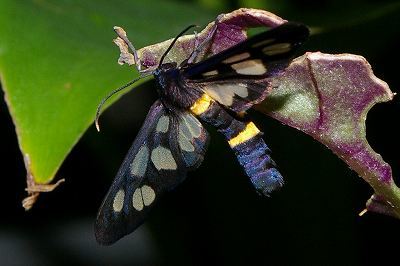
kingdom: Animalia
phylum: Arthropoda
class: Insecta
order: Lepidoptera
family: Erebidae
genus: Amata
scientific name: Amata fortunei
